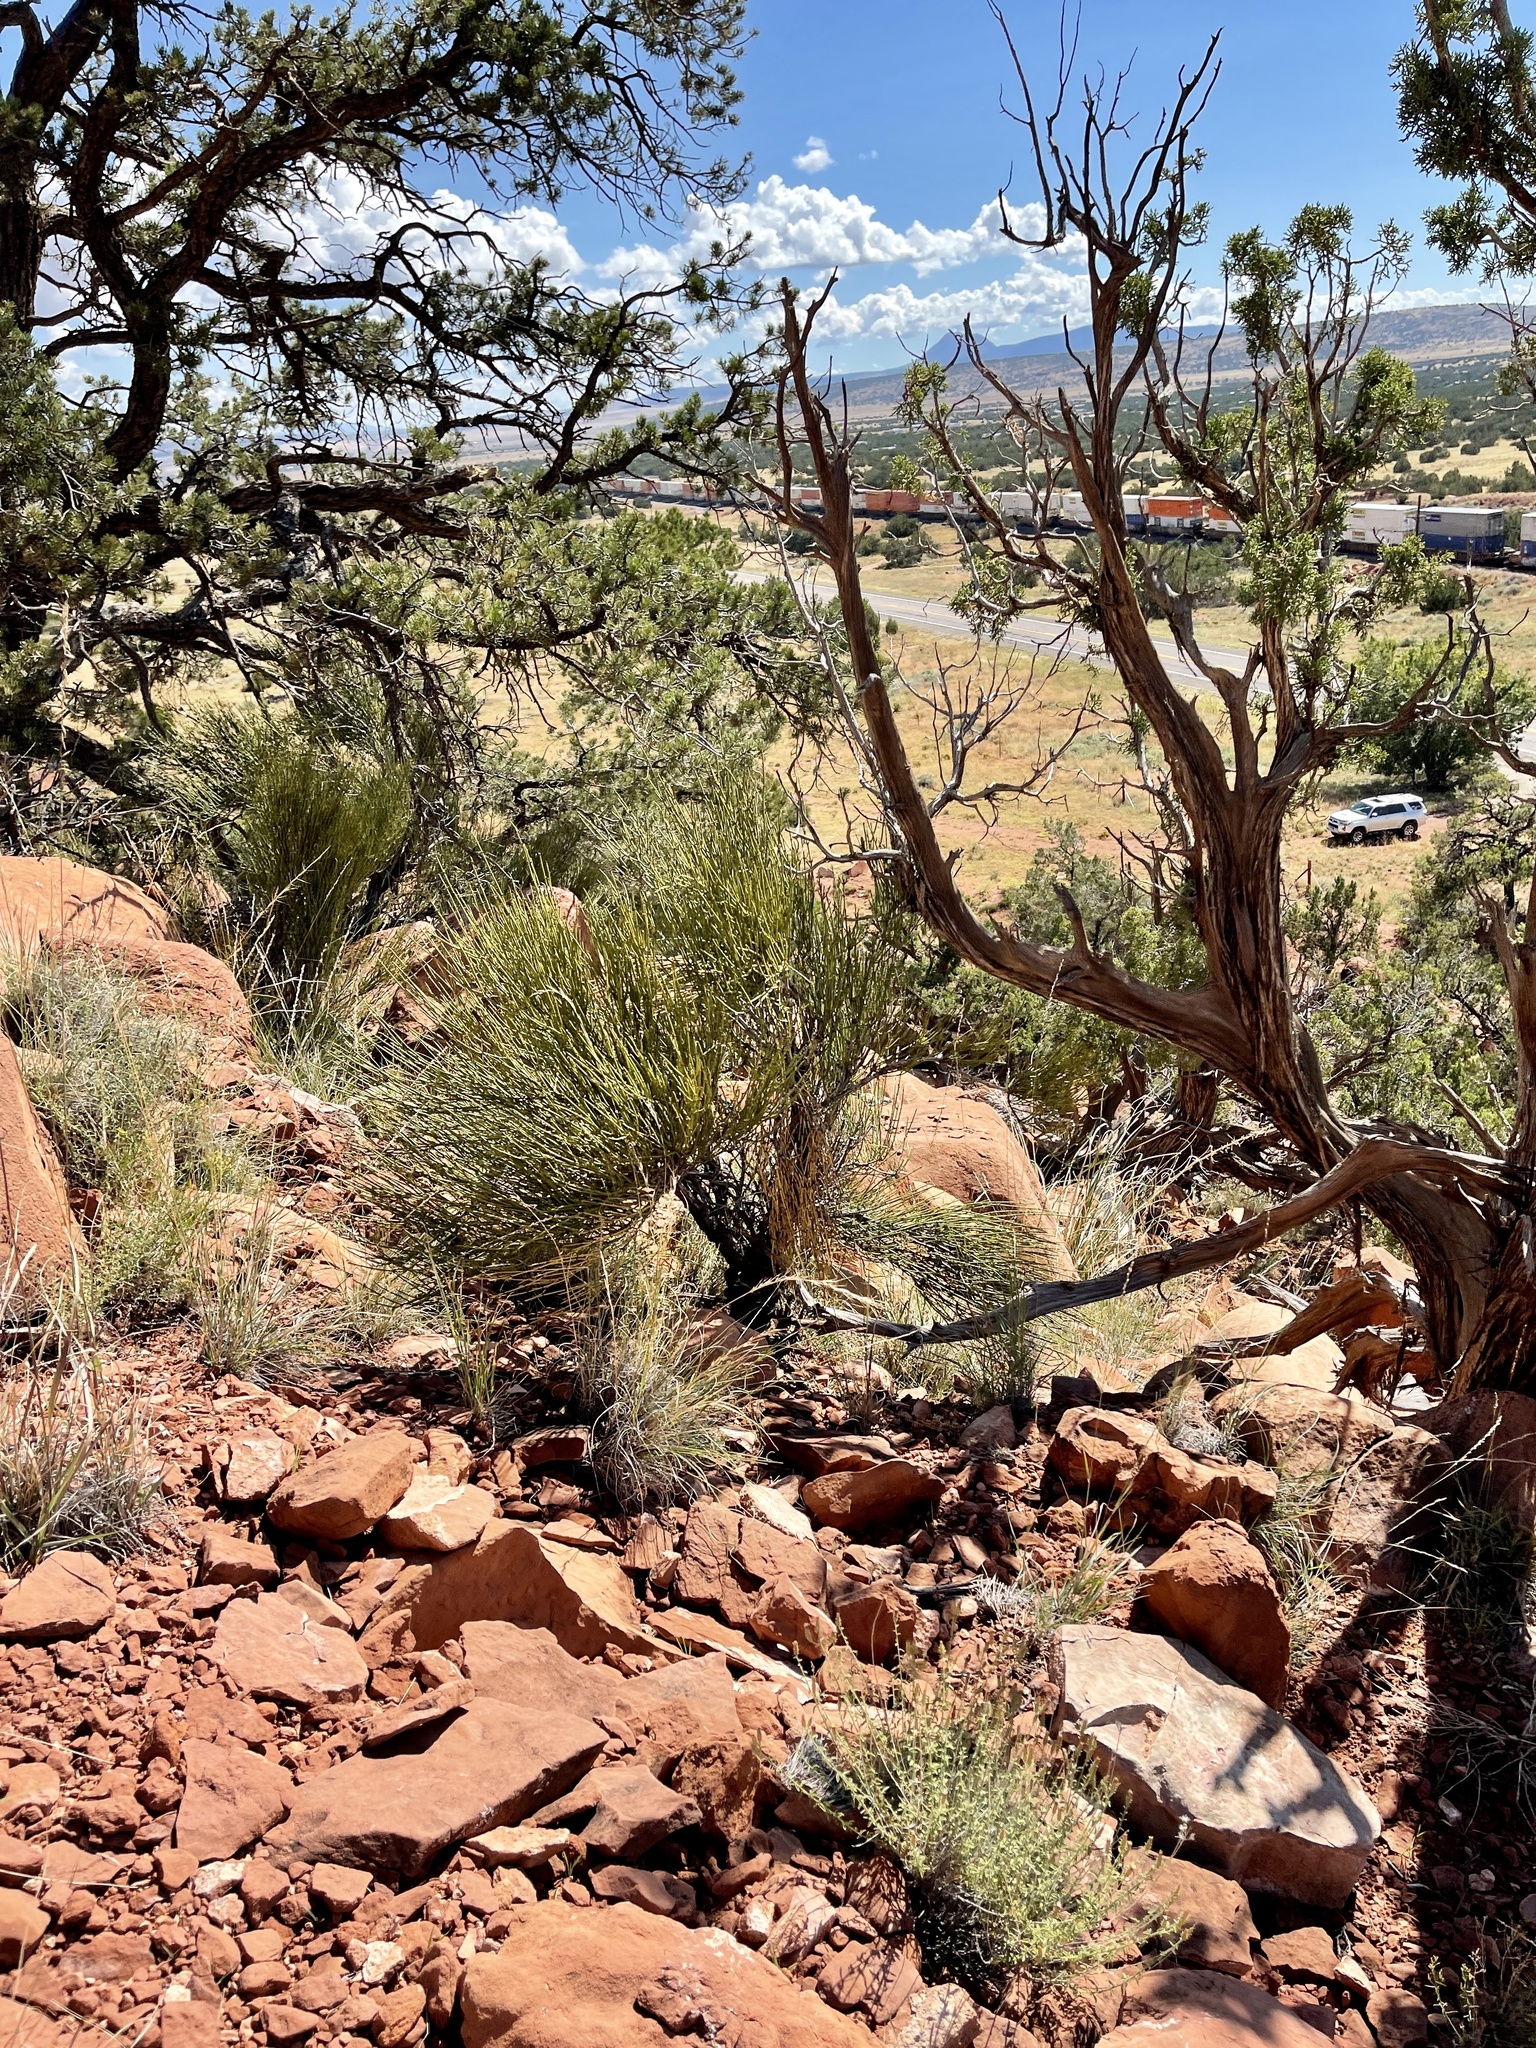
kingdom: Plantae
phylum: Tracheophyta
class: Gnetopsida
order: Ephedrales
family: Ephedraceae
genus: Ephedra
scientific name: Ephedra viridis
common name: Green ephedra
